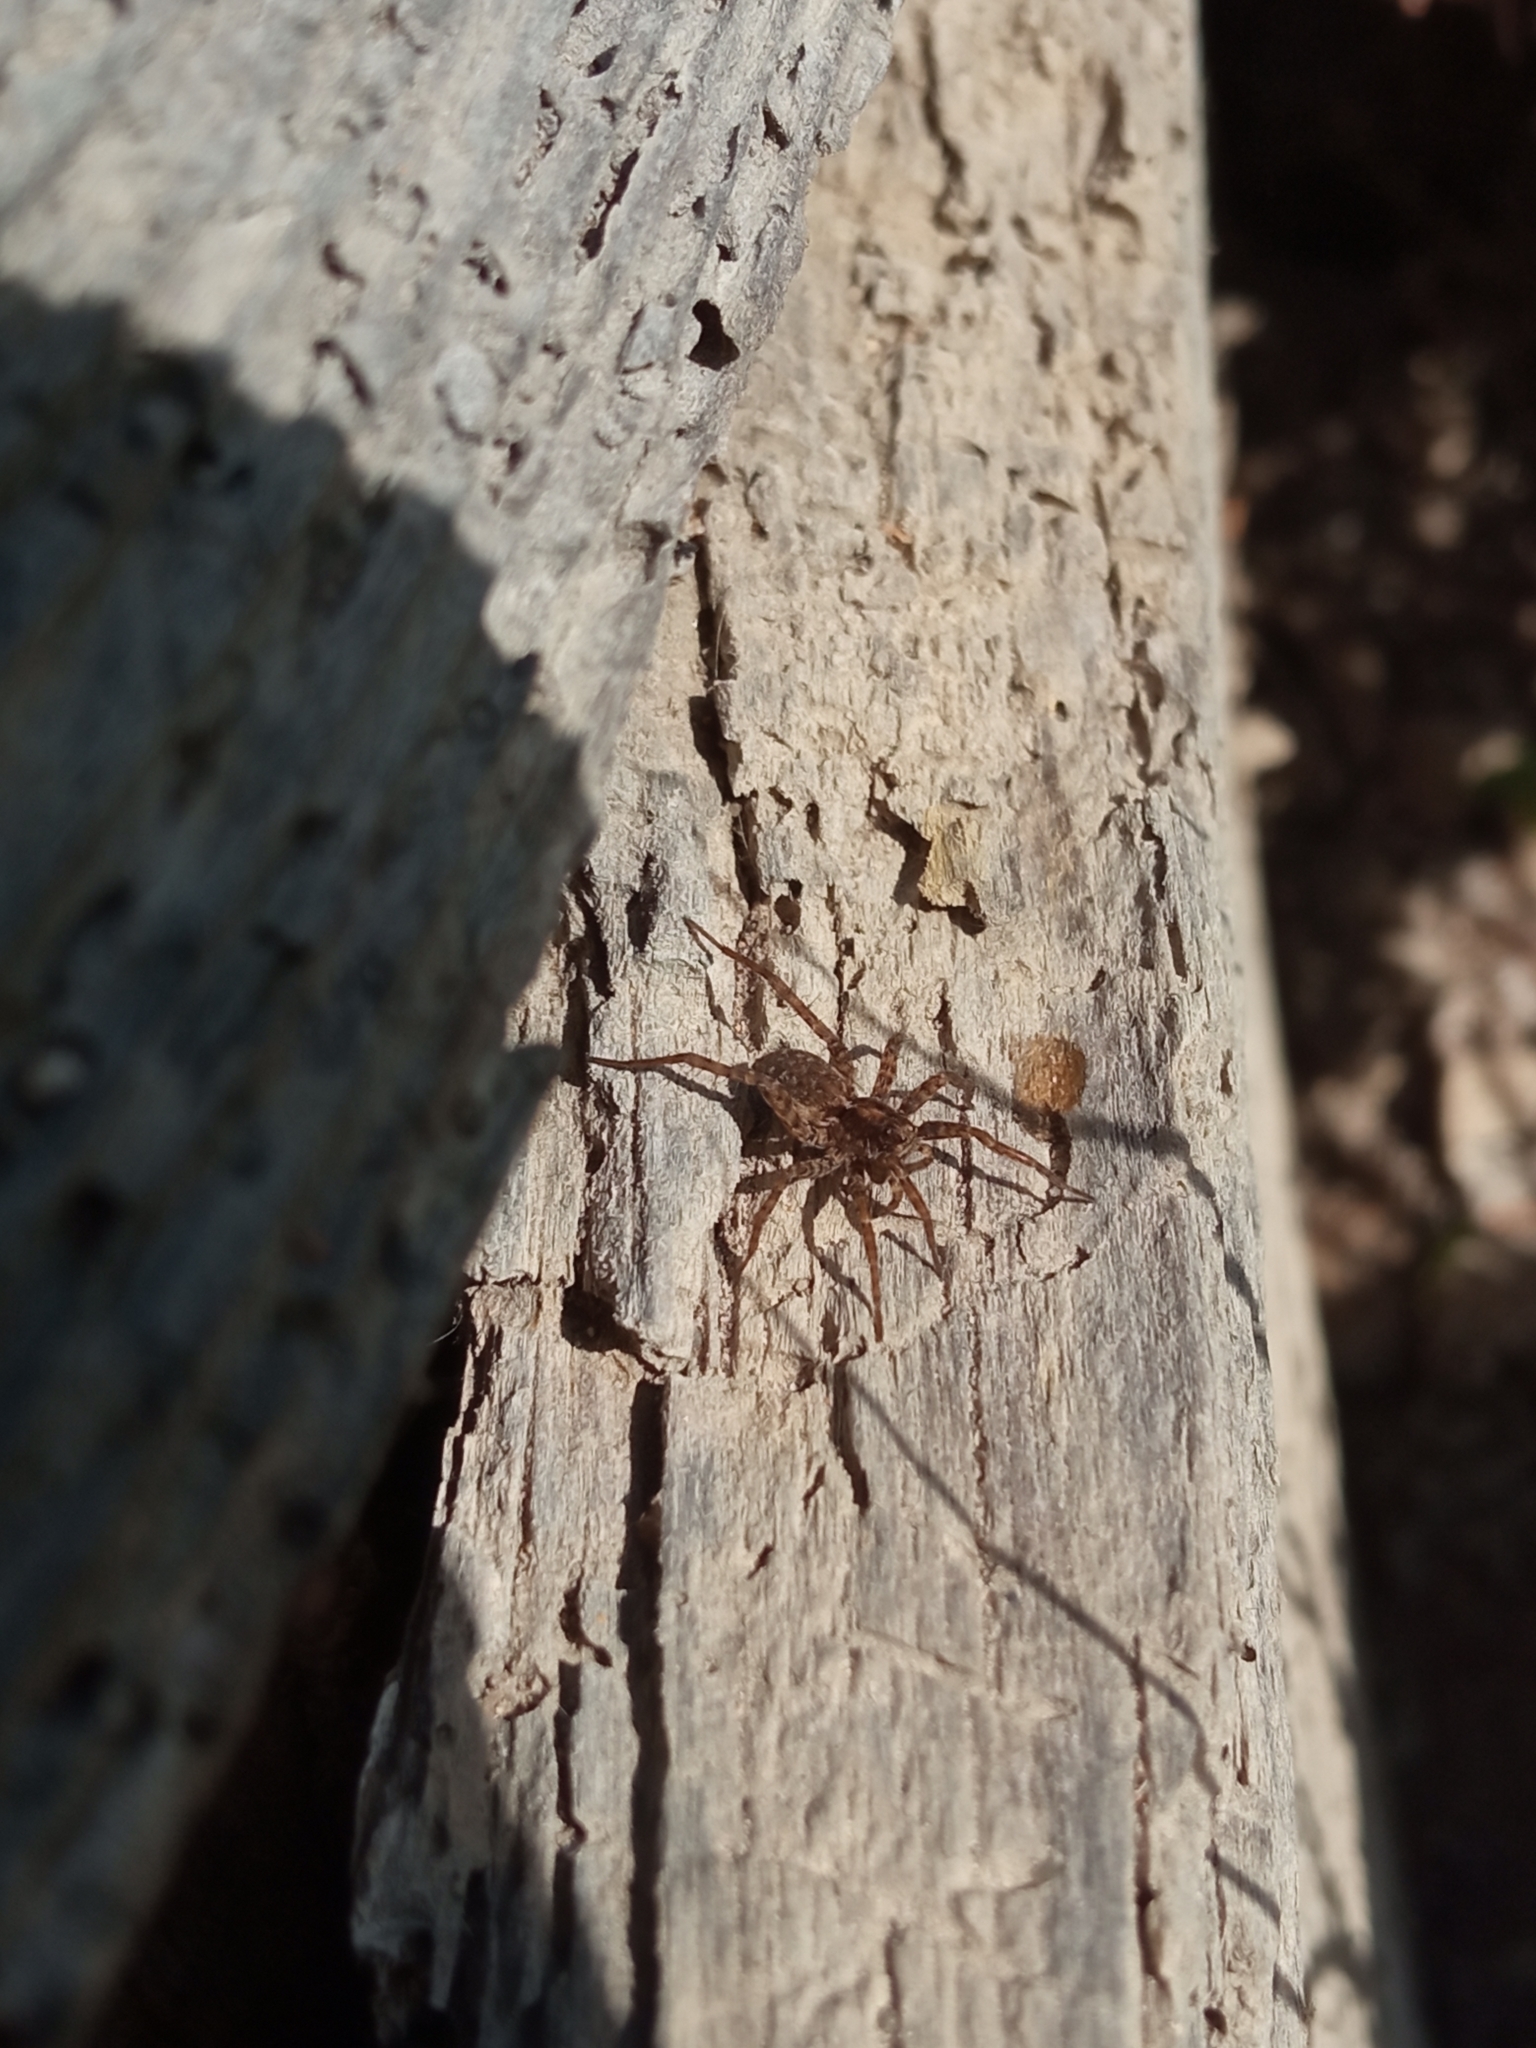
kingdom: Animalia
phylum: Arthropoda
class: Arachnida
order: Araneae
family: Lycosidae
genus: Pardosa
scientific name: Pardosa
